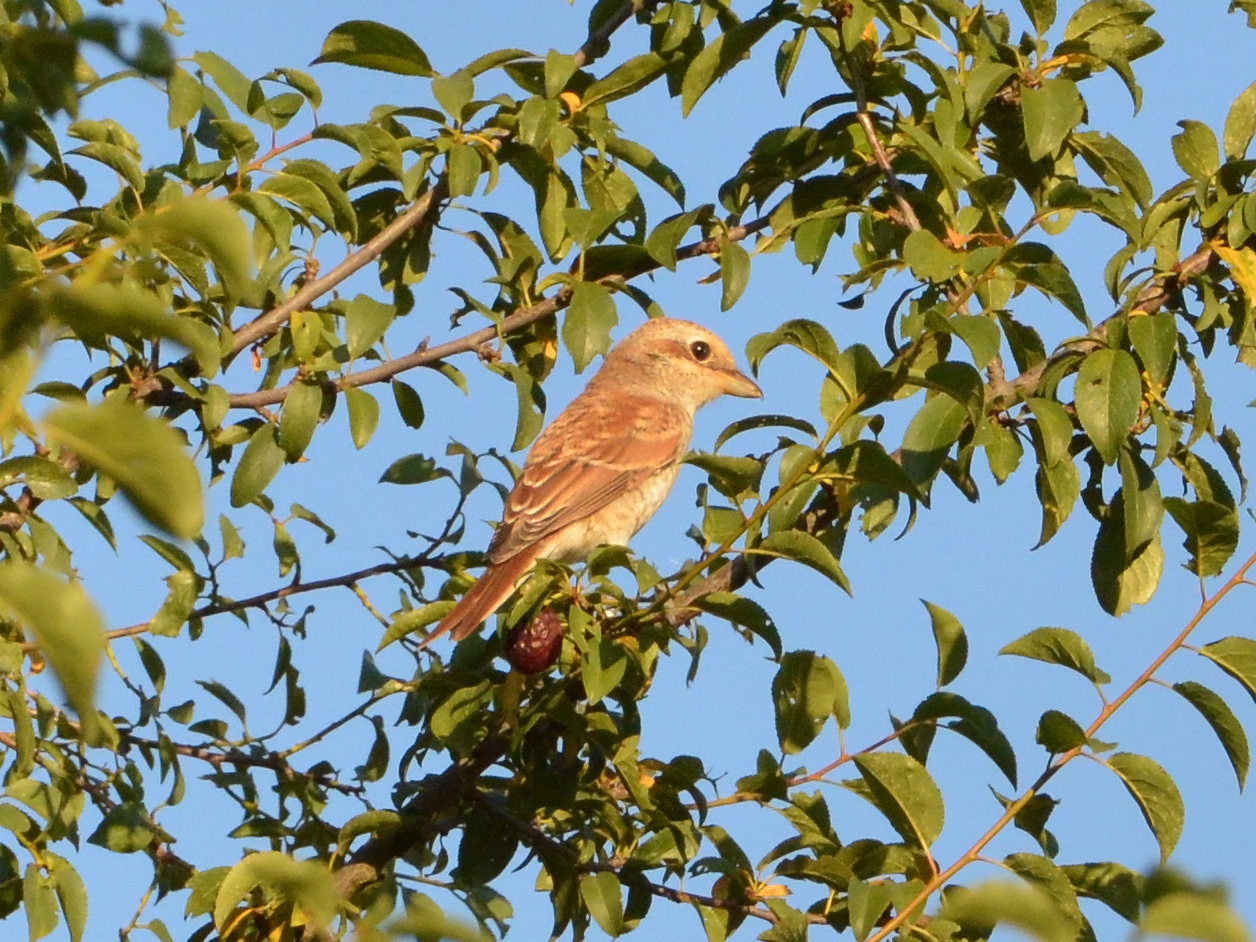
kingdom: Animalia
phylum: Chordata
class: Aves
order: Passeriformes
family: Laniidae
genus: Lanius
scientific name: Lanius collurio
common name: Red-backed shrike
